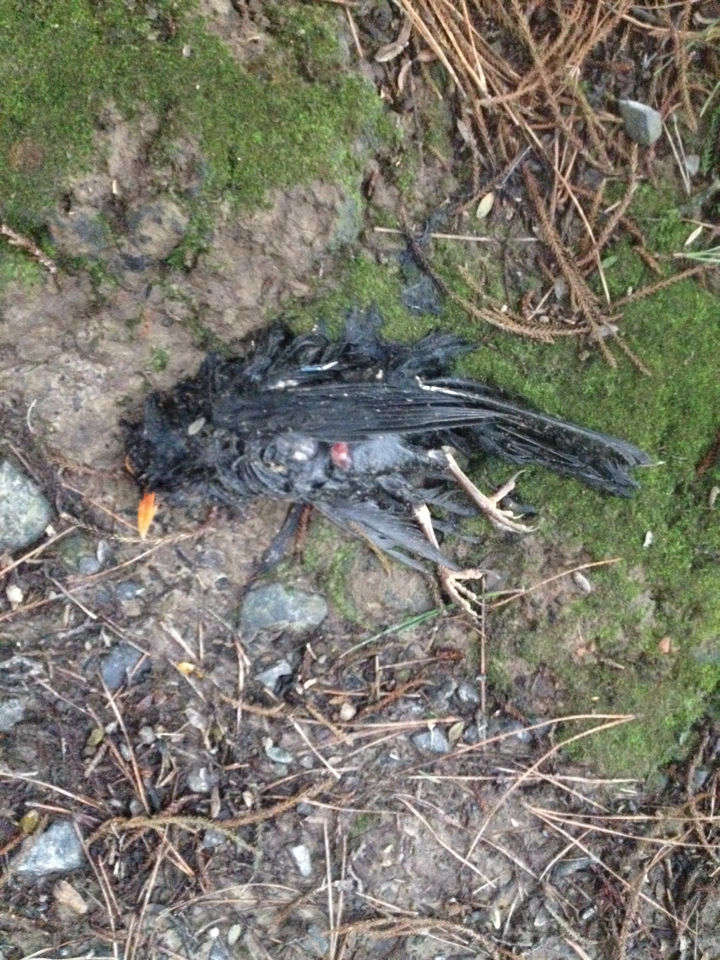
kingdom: Animalia
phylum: Chordata
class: Aves
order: Passeriformes
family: Turdidae
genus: Turdus
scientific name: Turdus merula
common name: Common blackbird
